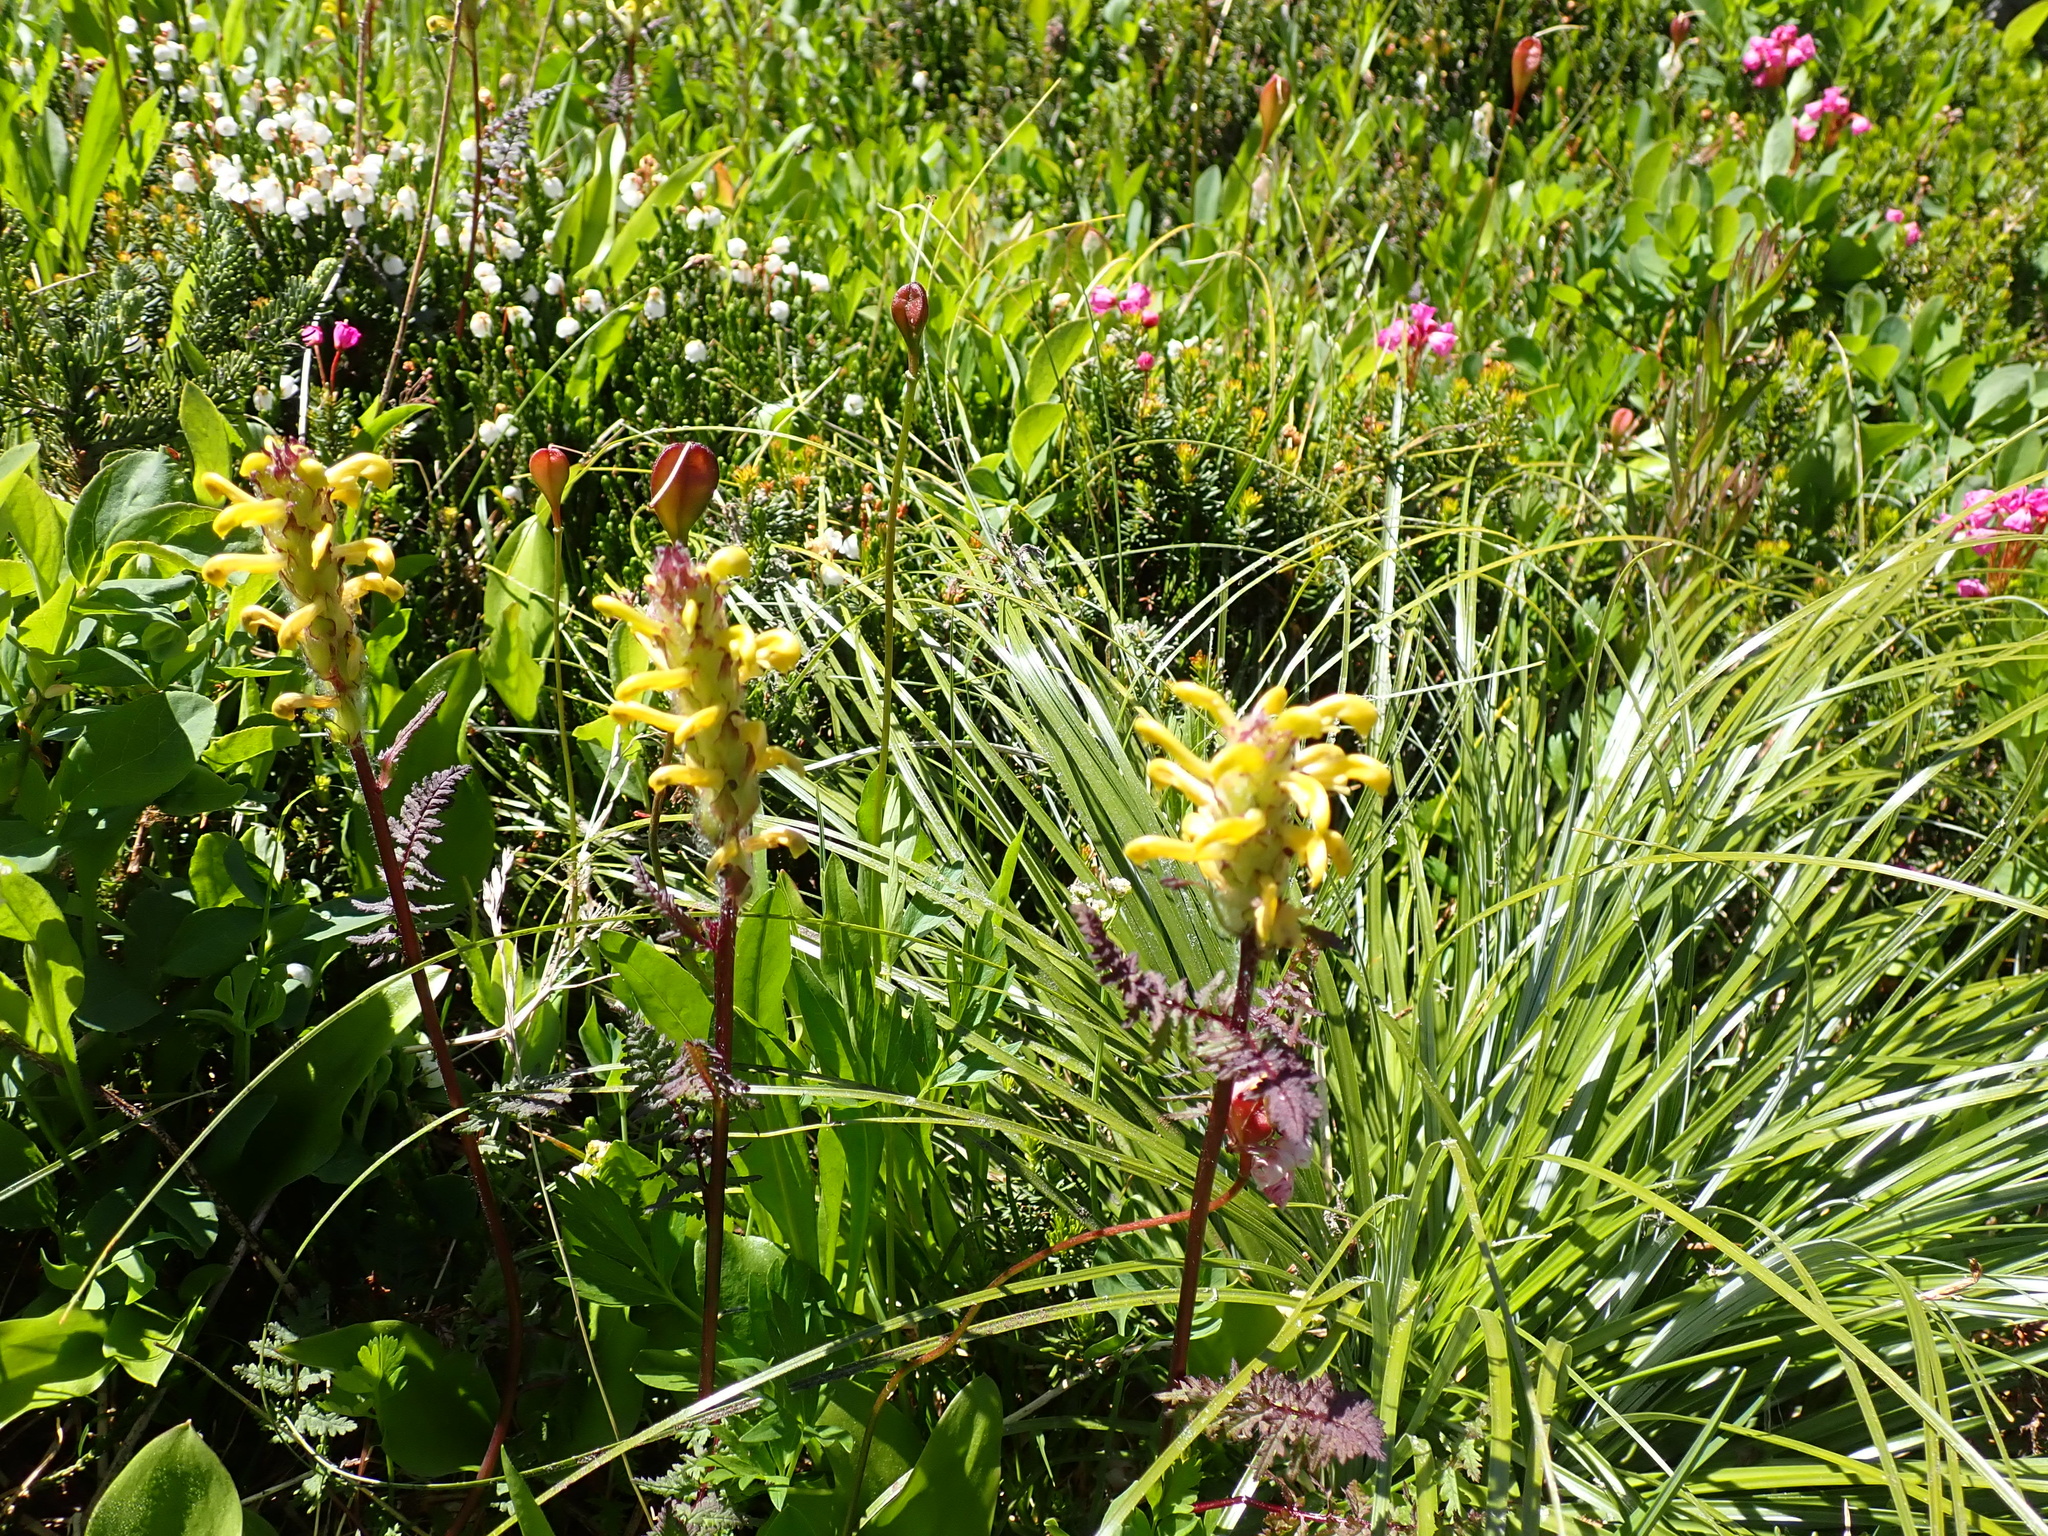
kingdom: Plantae
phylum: Tracheophyta
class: Magnoliopsida
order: Lamiales
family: Orobanchaceae
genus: Pedicularis
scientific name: Pedicularis bracteosa
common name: Bracted lousewort
